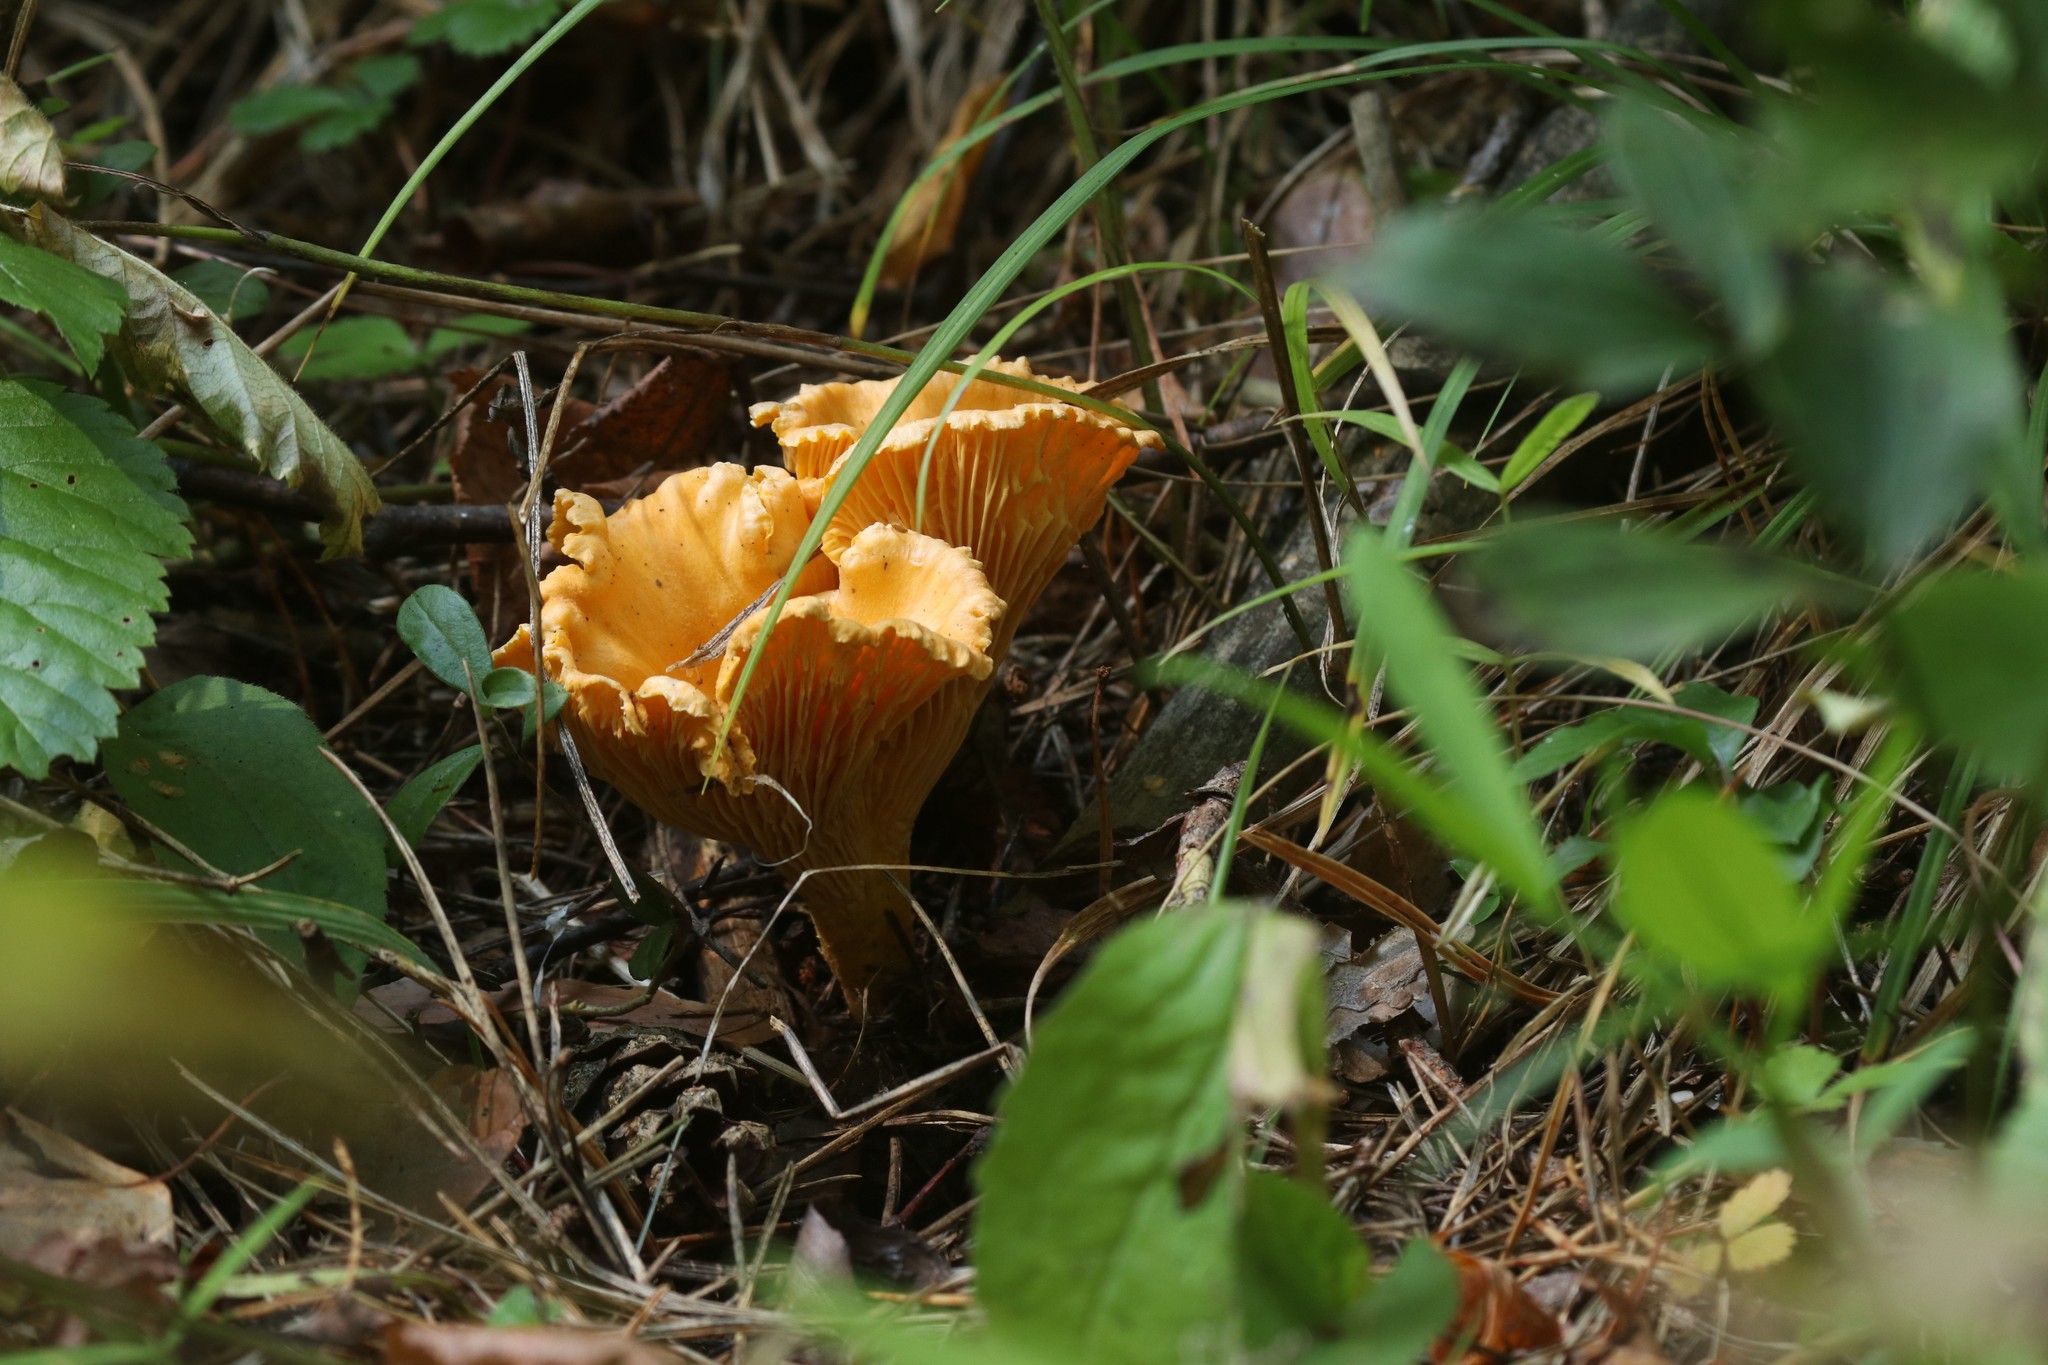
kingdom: Fungi
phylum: Basidiomycota
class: Agaricomycetes
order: Cantharellales
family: Hydnaceae
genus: Cantharellus
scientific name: Cantharellus cibarius
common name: Chanterelle
